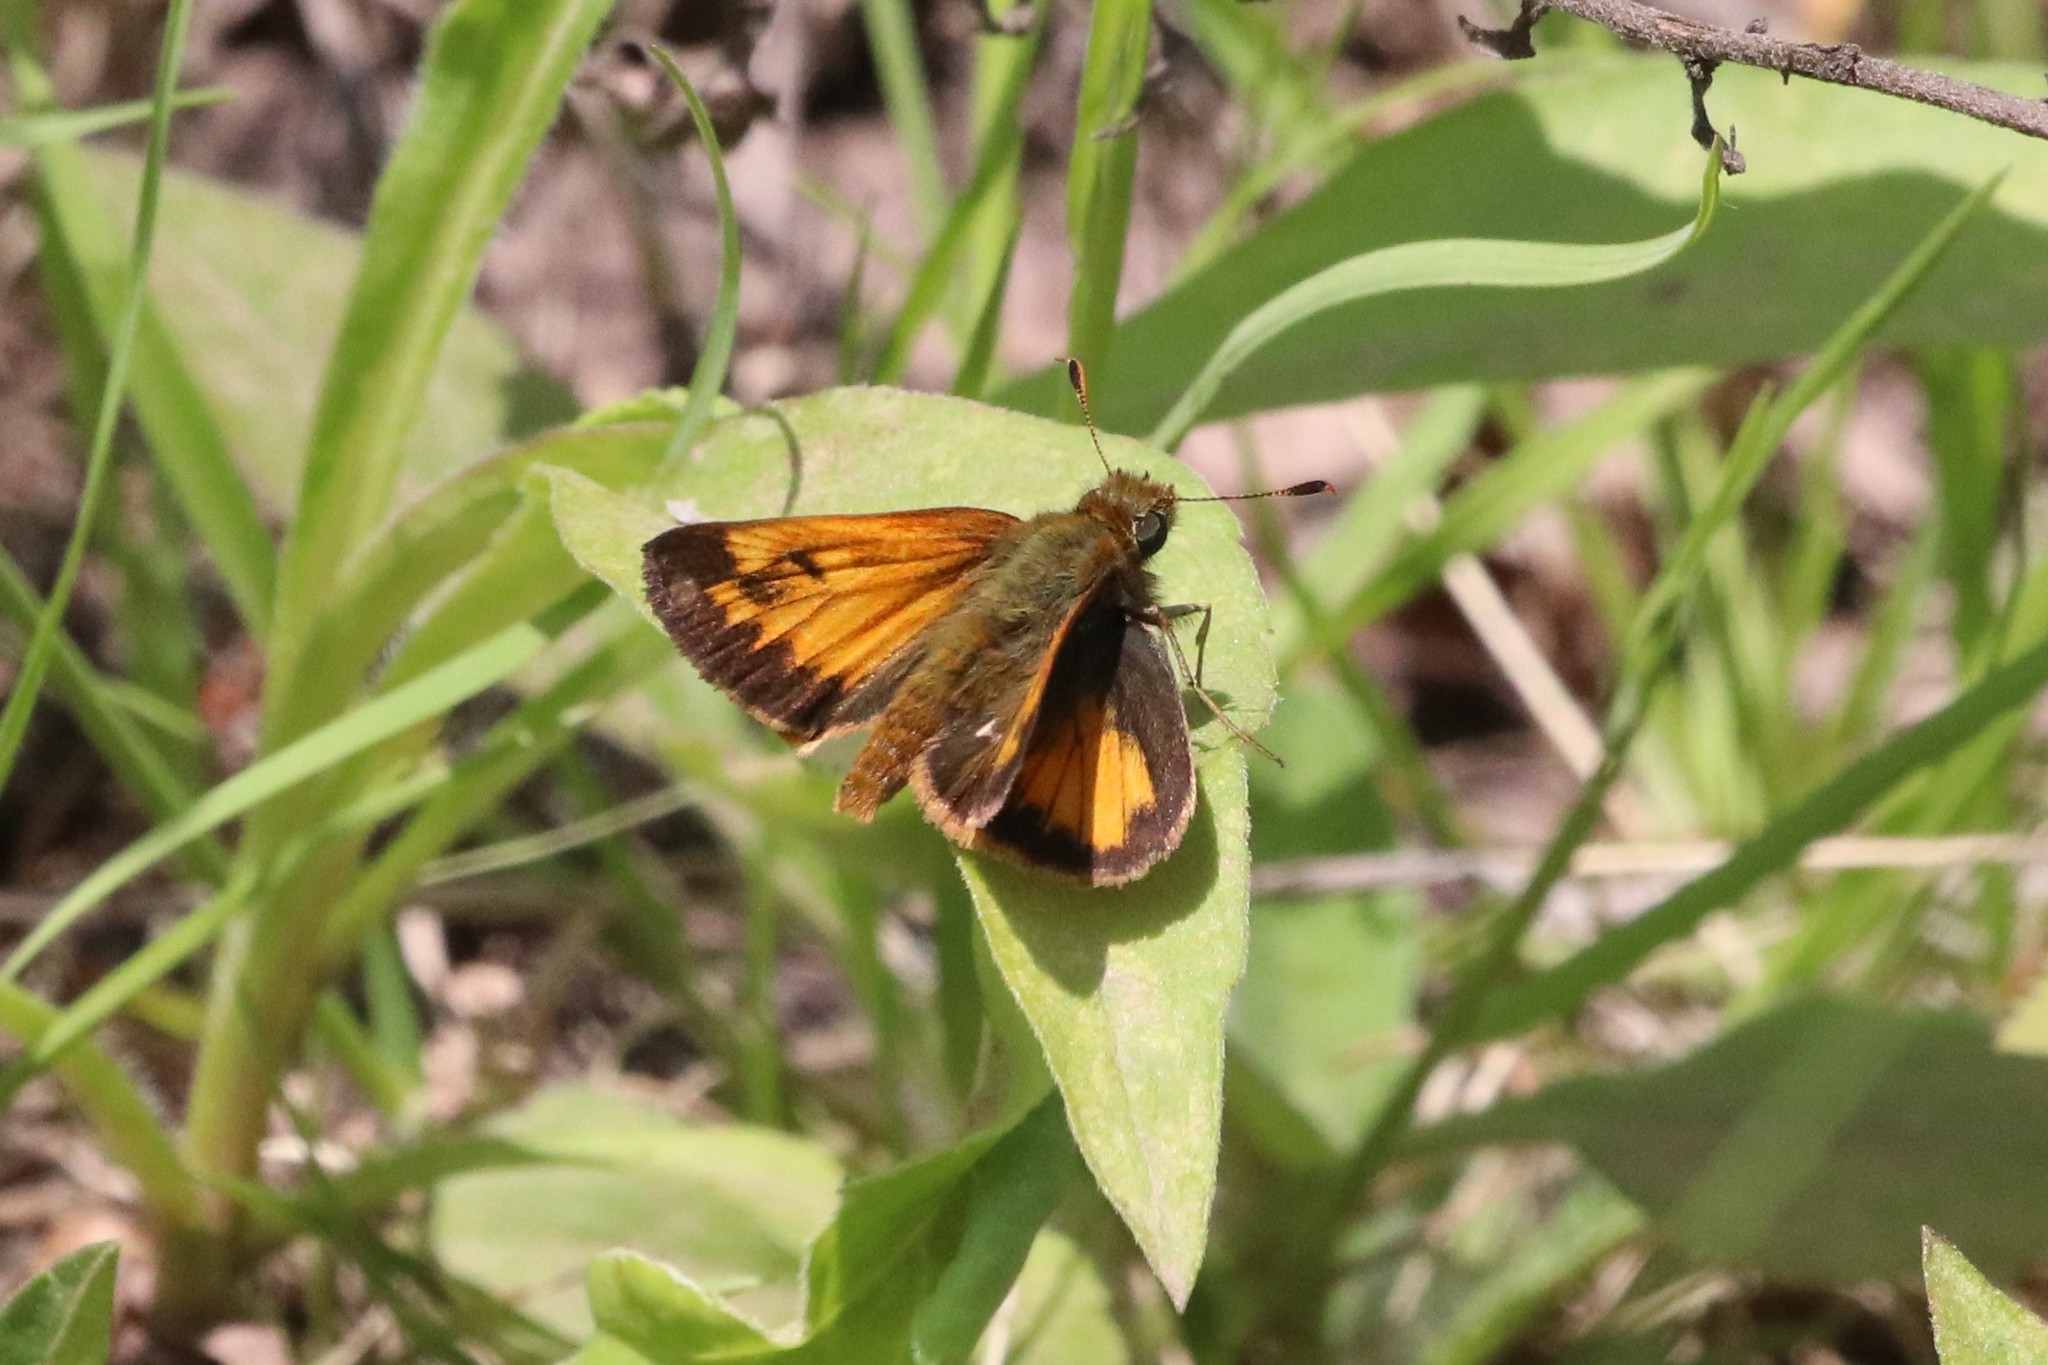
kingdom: Animalia
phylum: Arthropoda
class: Insecta
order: Lepidoptera
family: Hesperiidae
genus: Lon
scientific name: Lon hobomok
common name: Hobomok skipper
